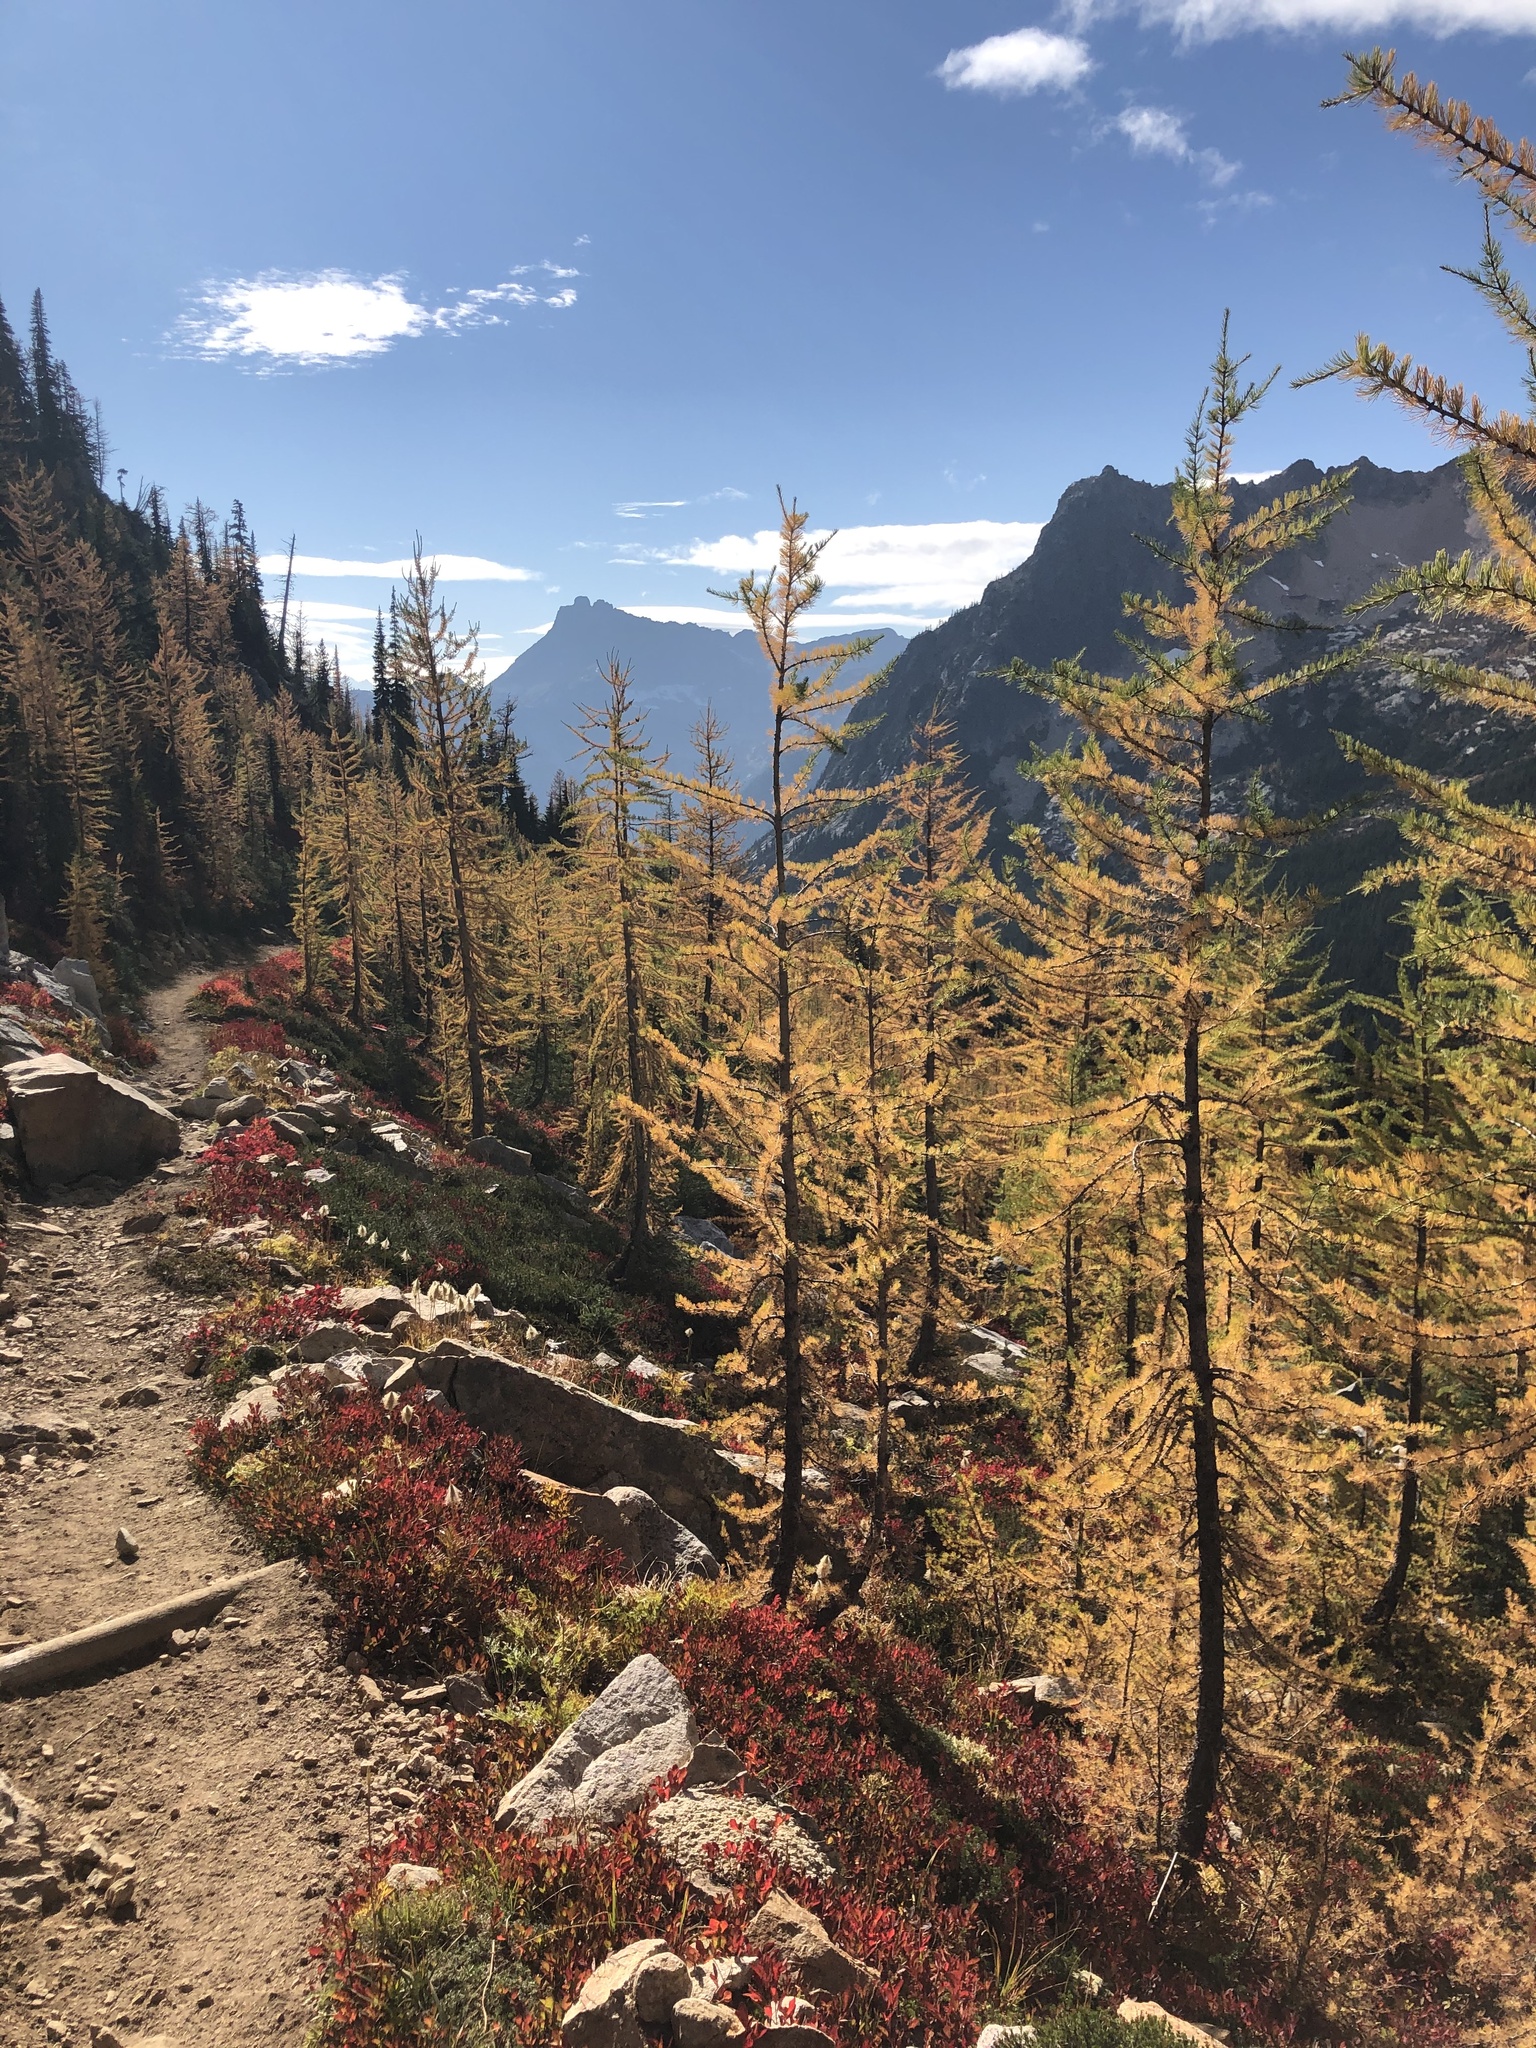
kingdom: Plantae
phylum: Tracheophyta
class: Pinopsida
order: Pinales
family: Pinaceae
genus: Larix
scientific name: Larix lyallii
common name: Alpine larch
